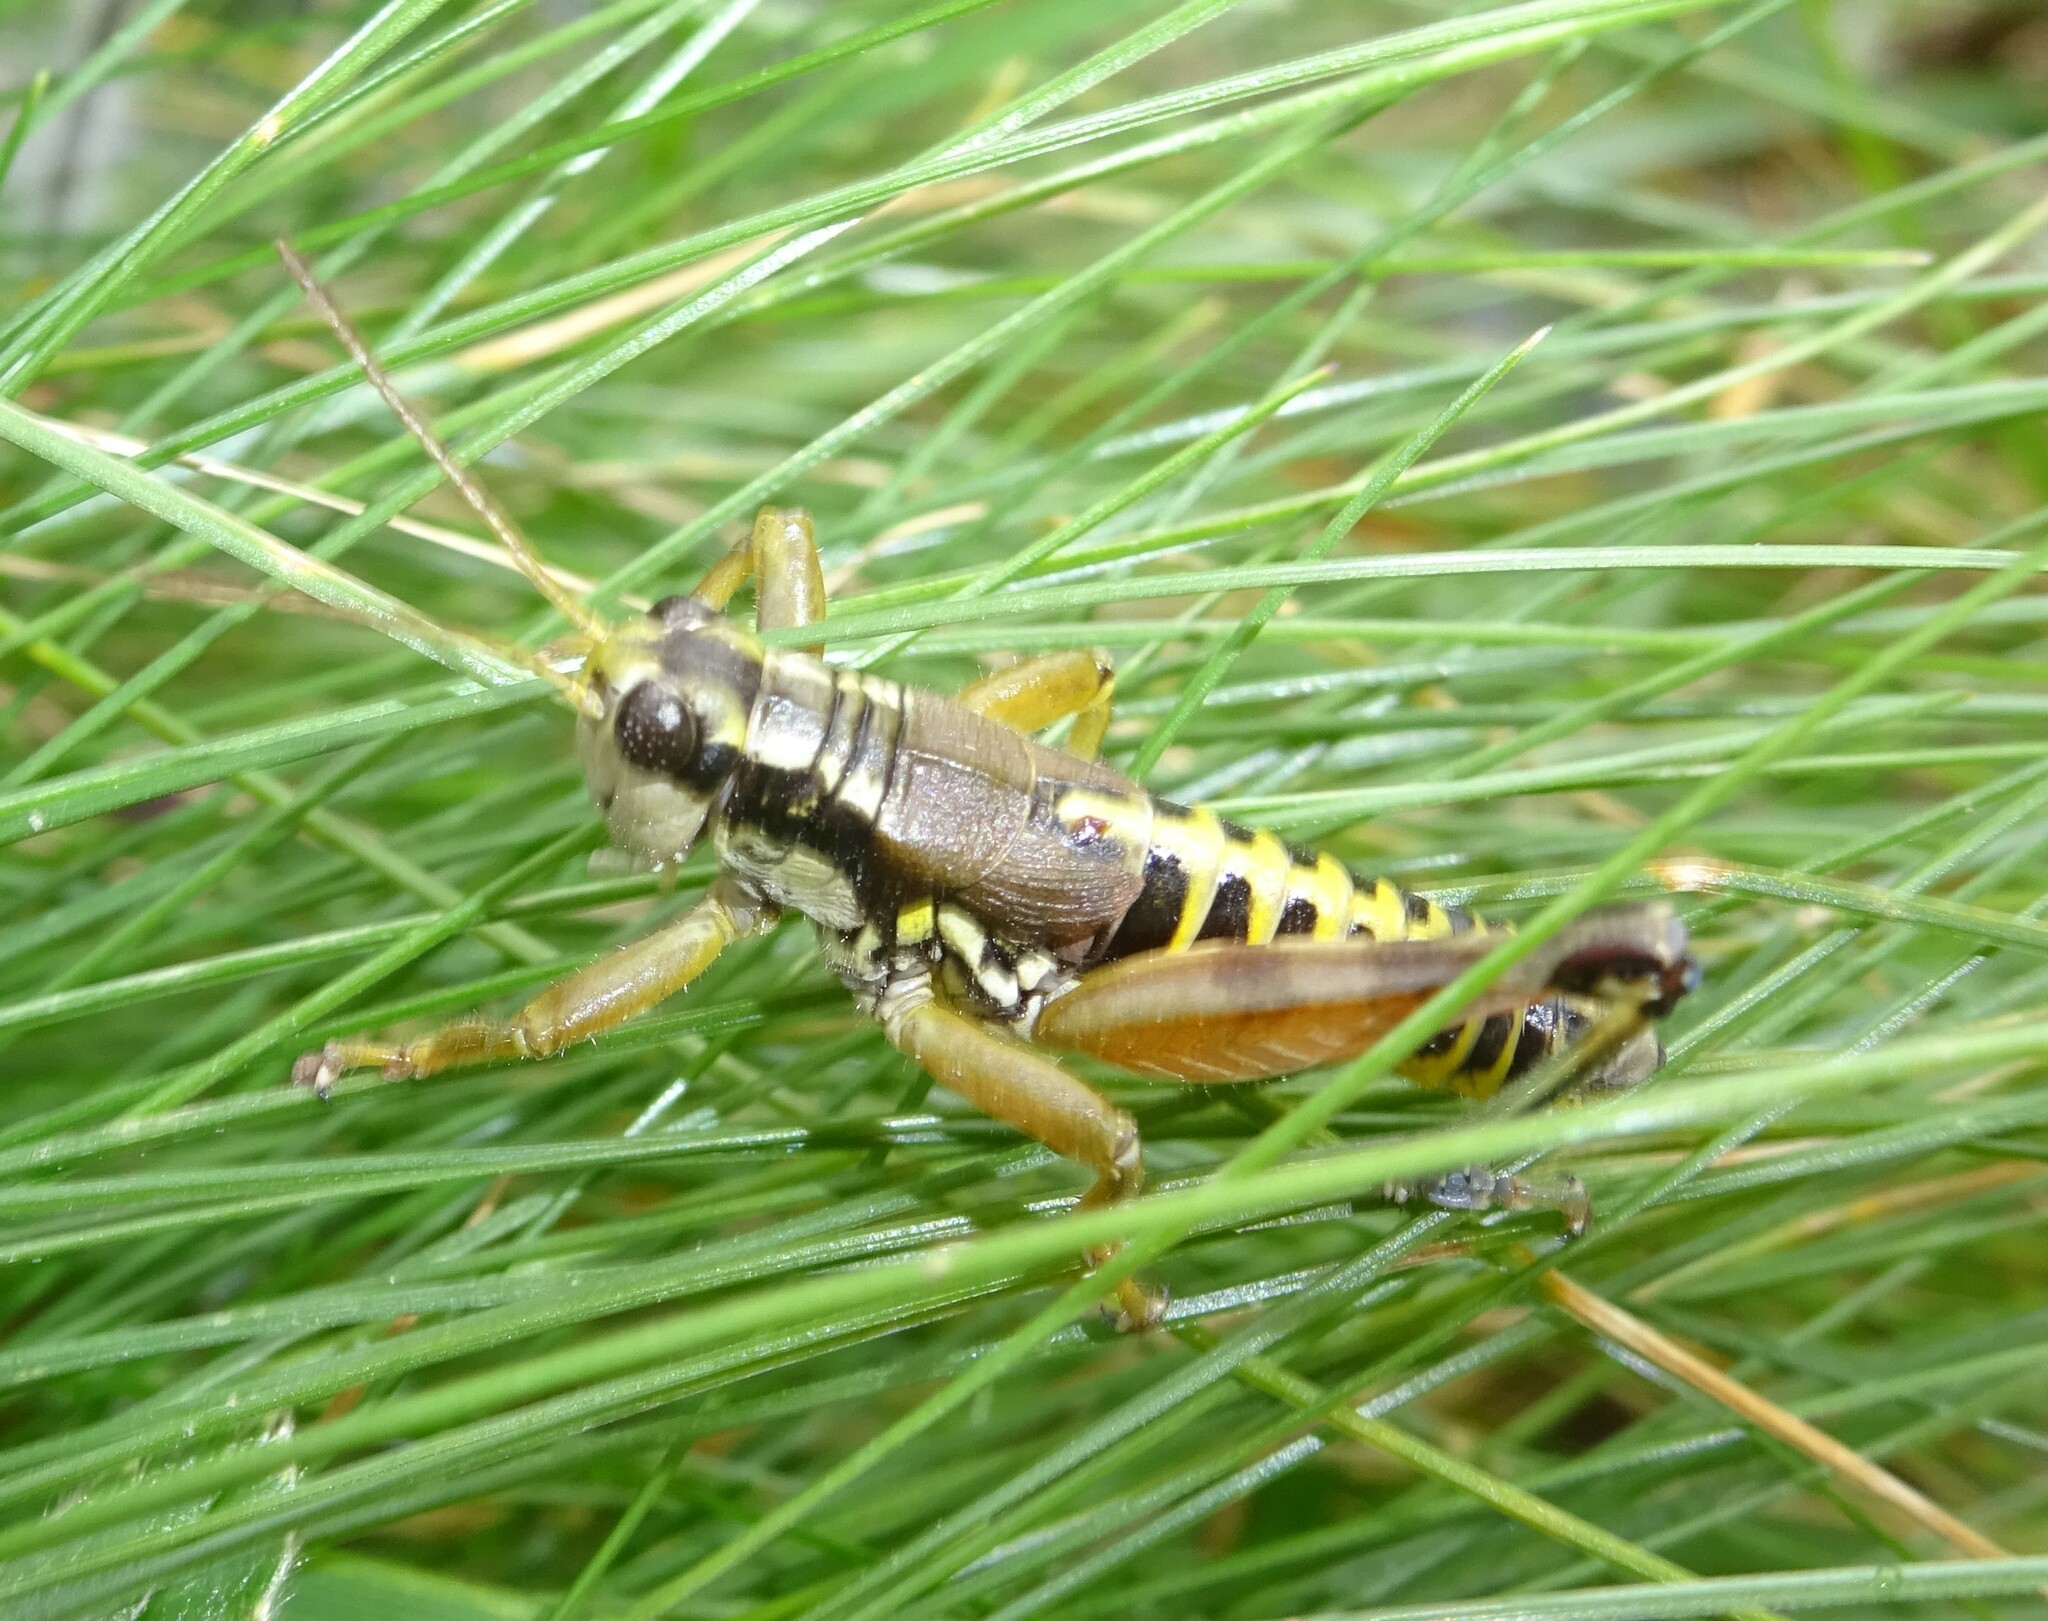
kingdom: Animalia
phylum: Arthropoda
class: Insecta
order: Orthoptera
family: Acrididae
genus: Podisma
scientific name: Podisma pedestris
